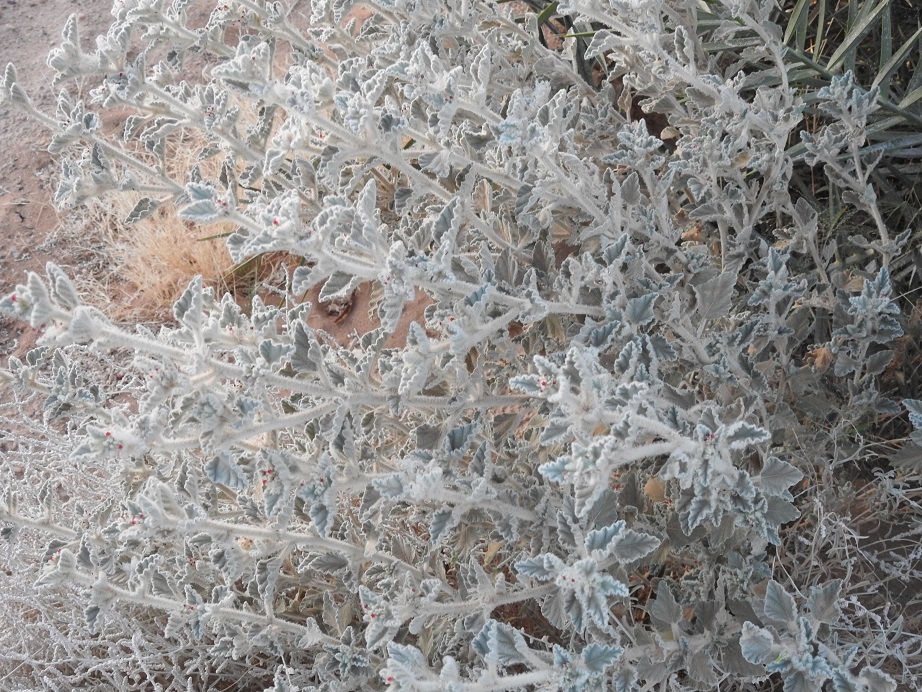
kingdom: Plantae
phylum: Tracheophyta
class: Magnoliopsida
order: Malpighiales
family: Euphorbiaceae
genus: Chrozophora
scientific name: Chrozophora brocchiana
